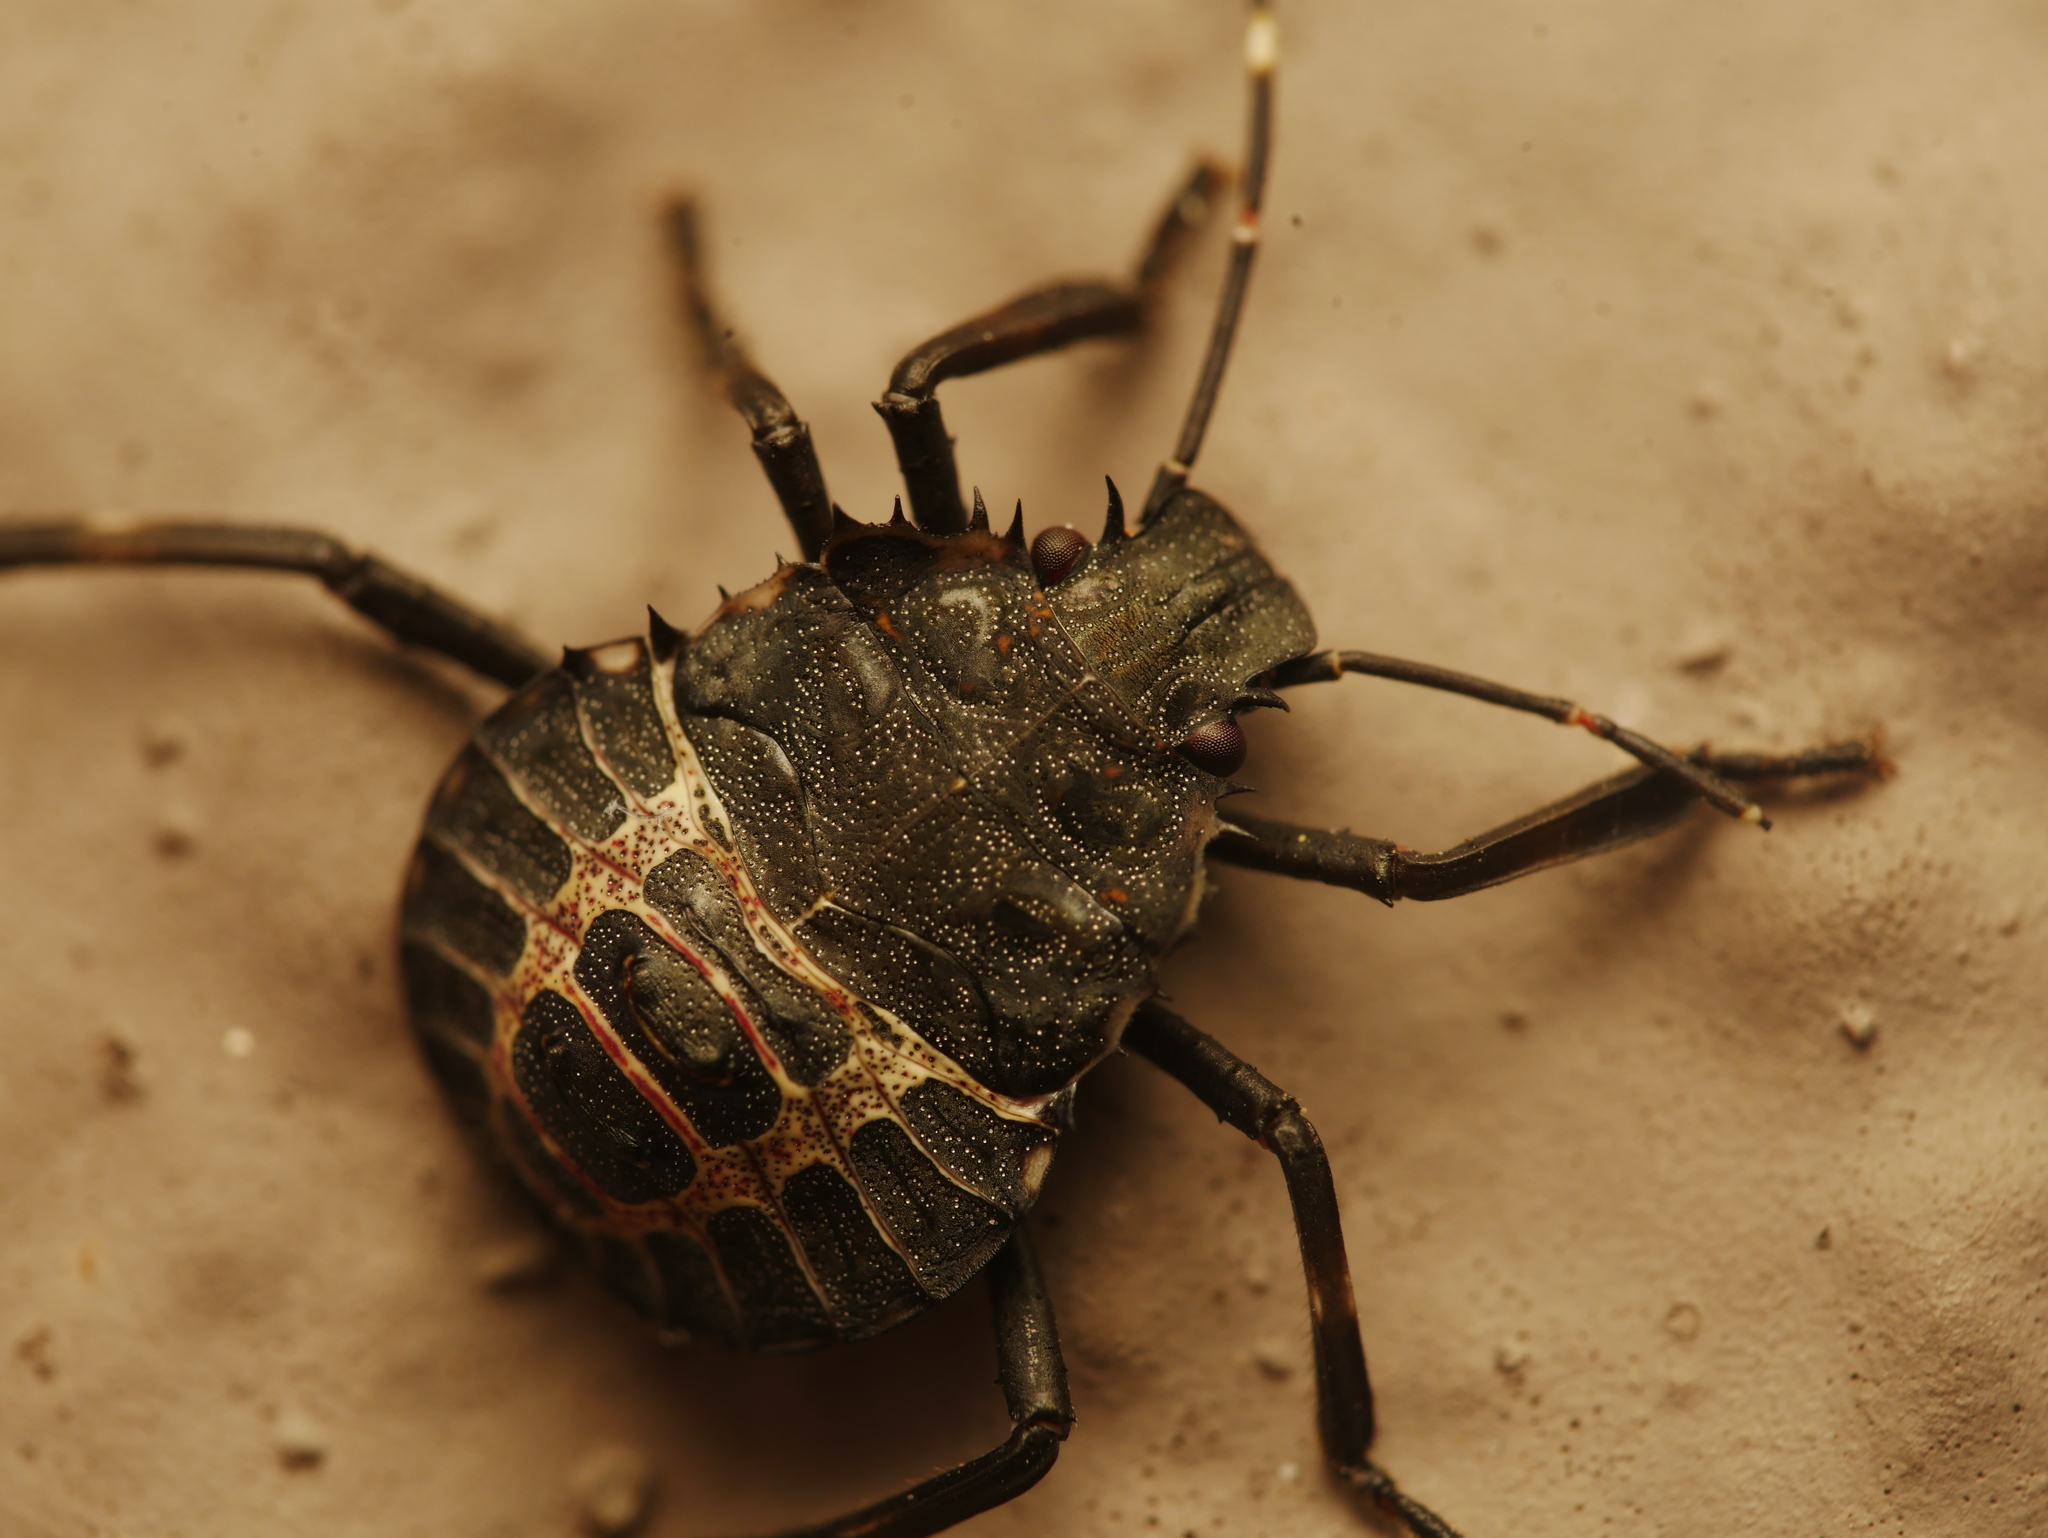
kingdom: Animalia
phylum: Arthropoda
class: Insecta
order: Hemiptera
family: Pentatomidae
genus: Halyomorpha
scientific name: Halyomorpha halys
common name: Brown marmorated stink bug
